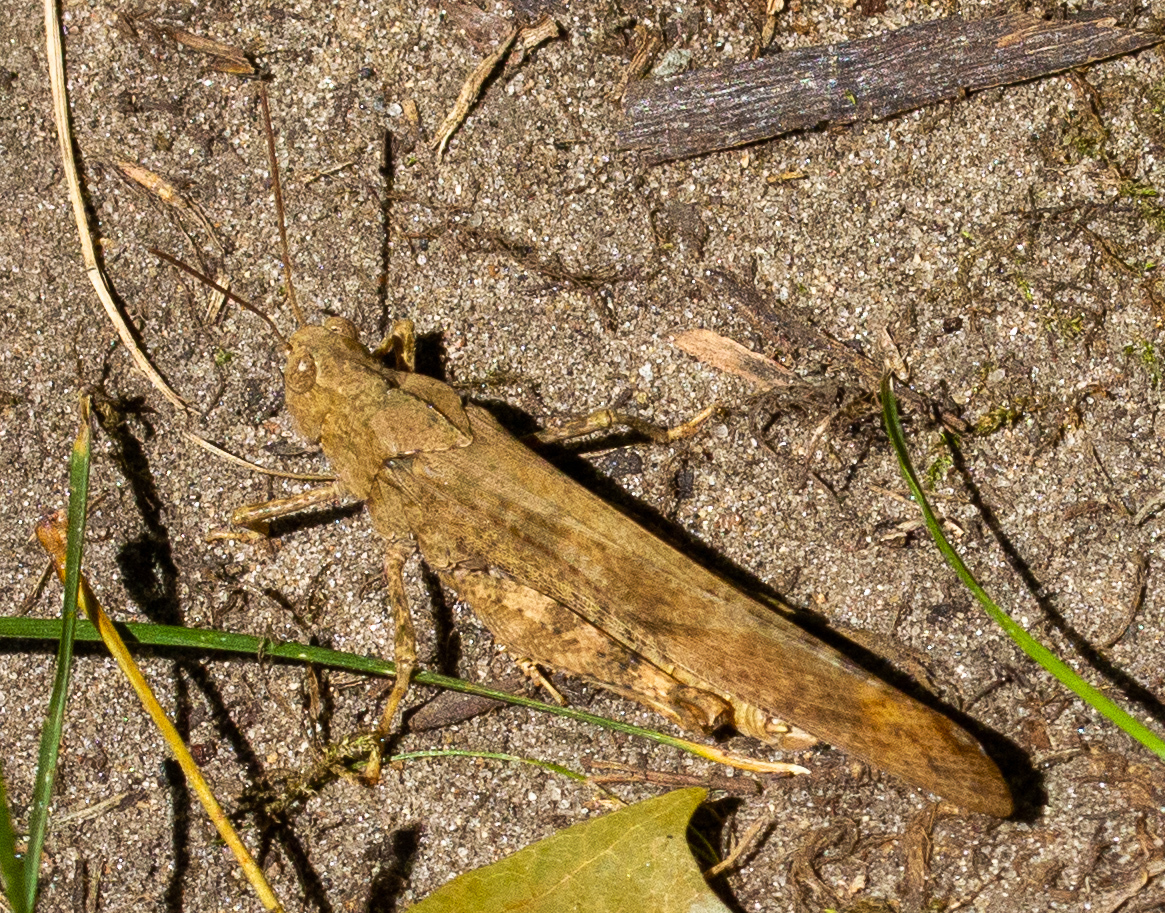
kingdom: Animalia
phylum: Arthropoda
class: Insecta
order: Orthoptera
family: Acrididae
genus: Dissosteira
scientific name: Dissosteira carolina
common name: Carolina grasshopper
